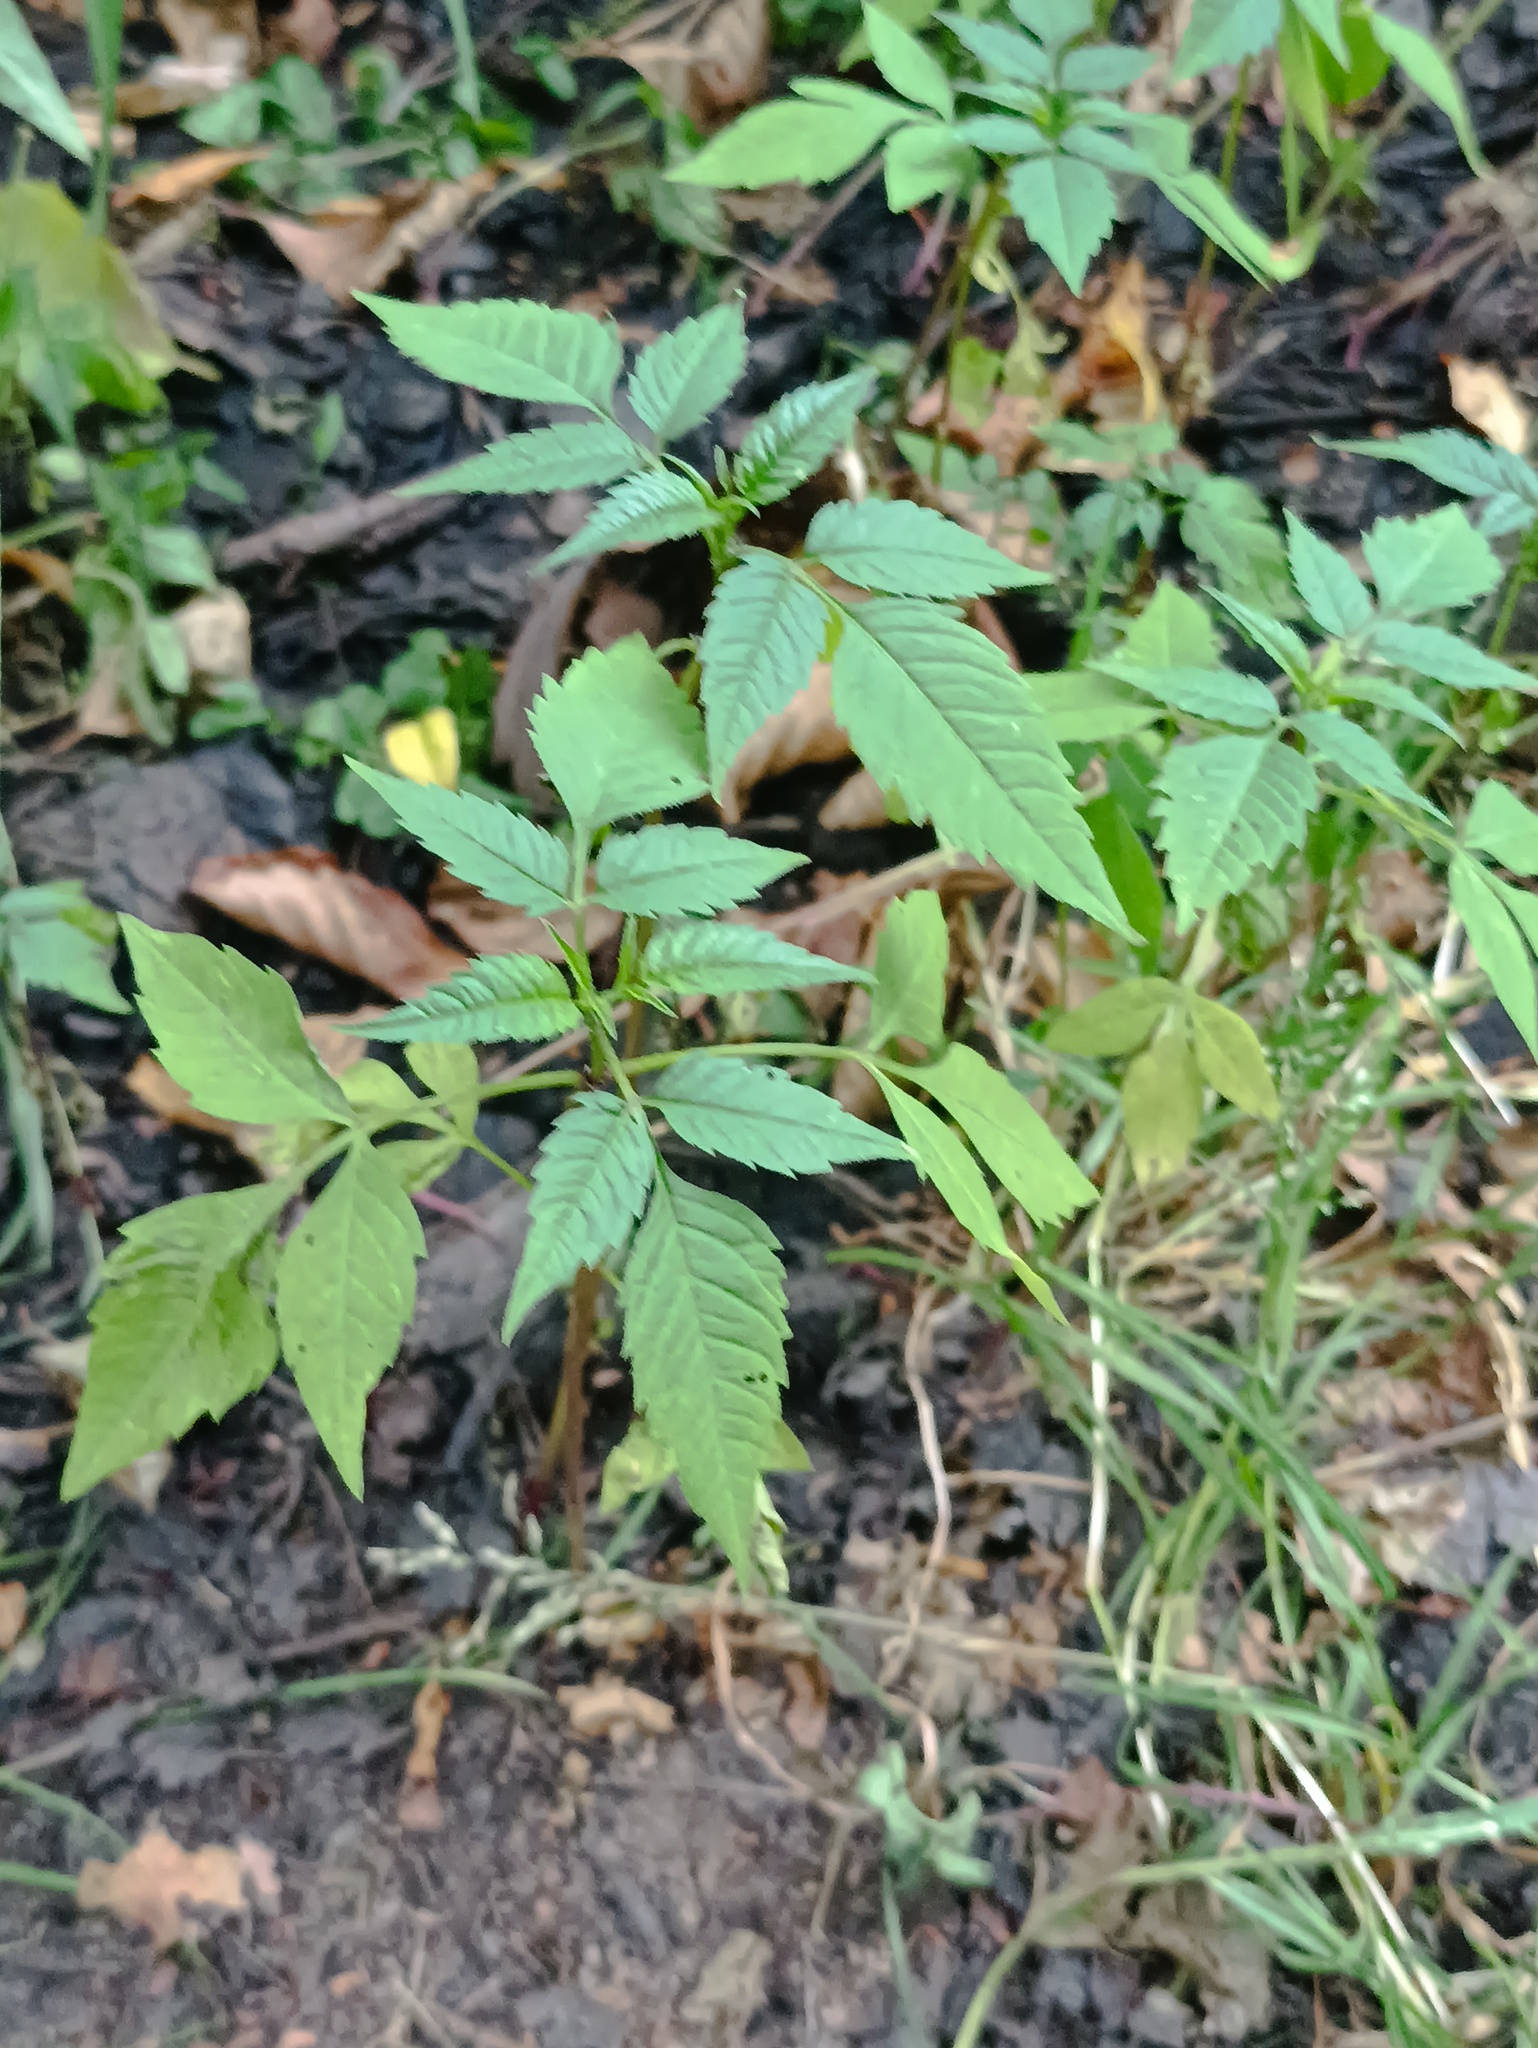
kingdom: Plantae
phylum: Tracheophyta
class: Magnoliopsida
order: Asterales
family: Asteraceae
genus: Bidens
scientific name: Bidens frondosa
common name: Beggarticks
